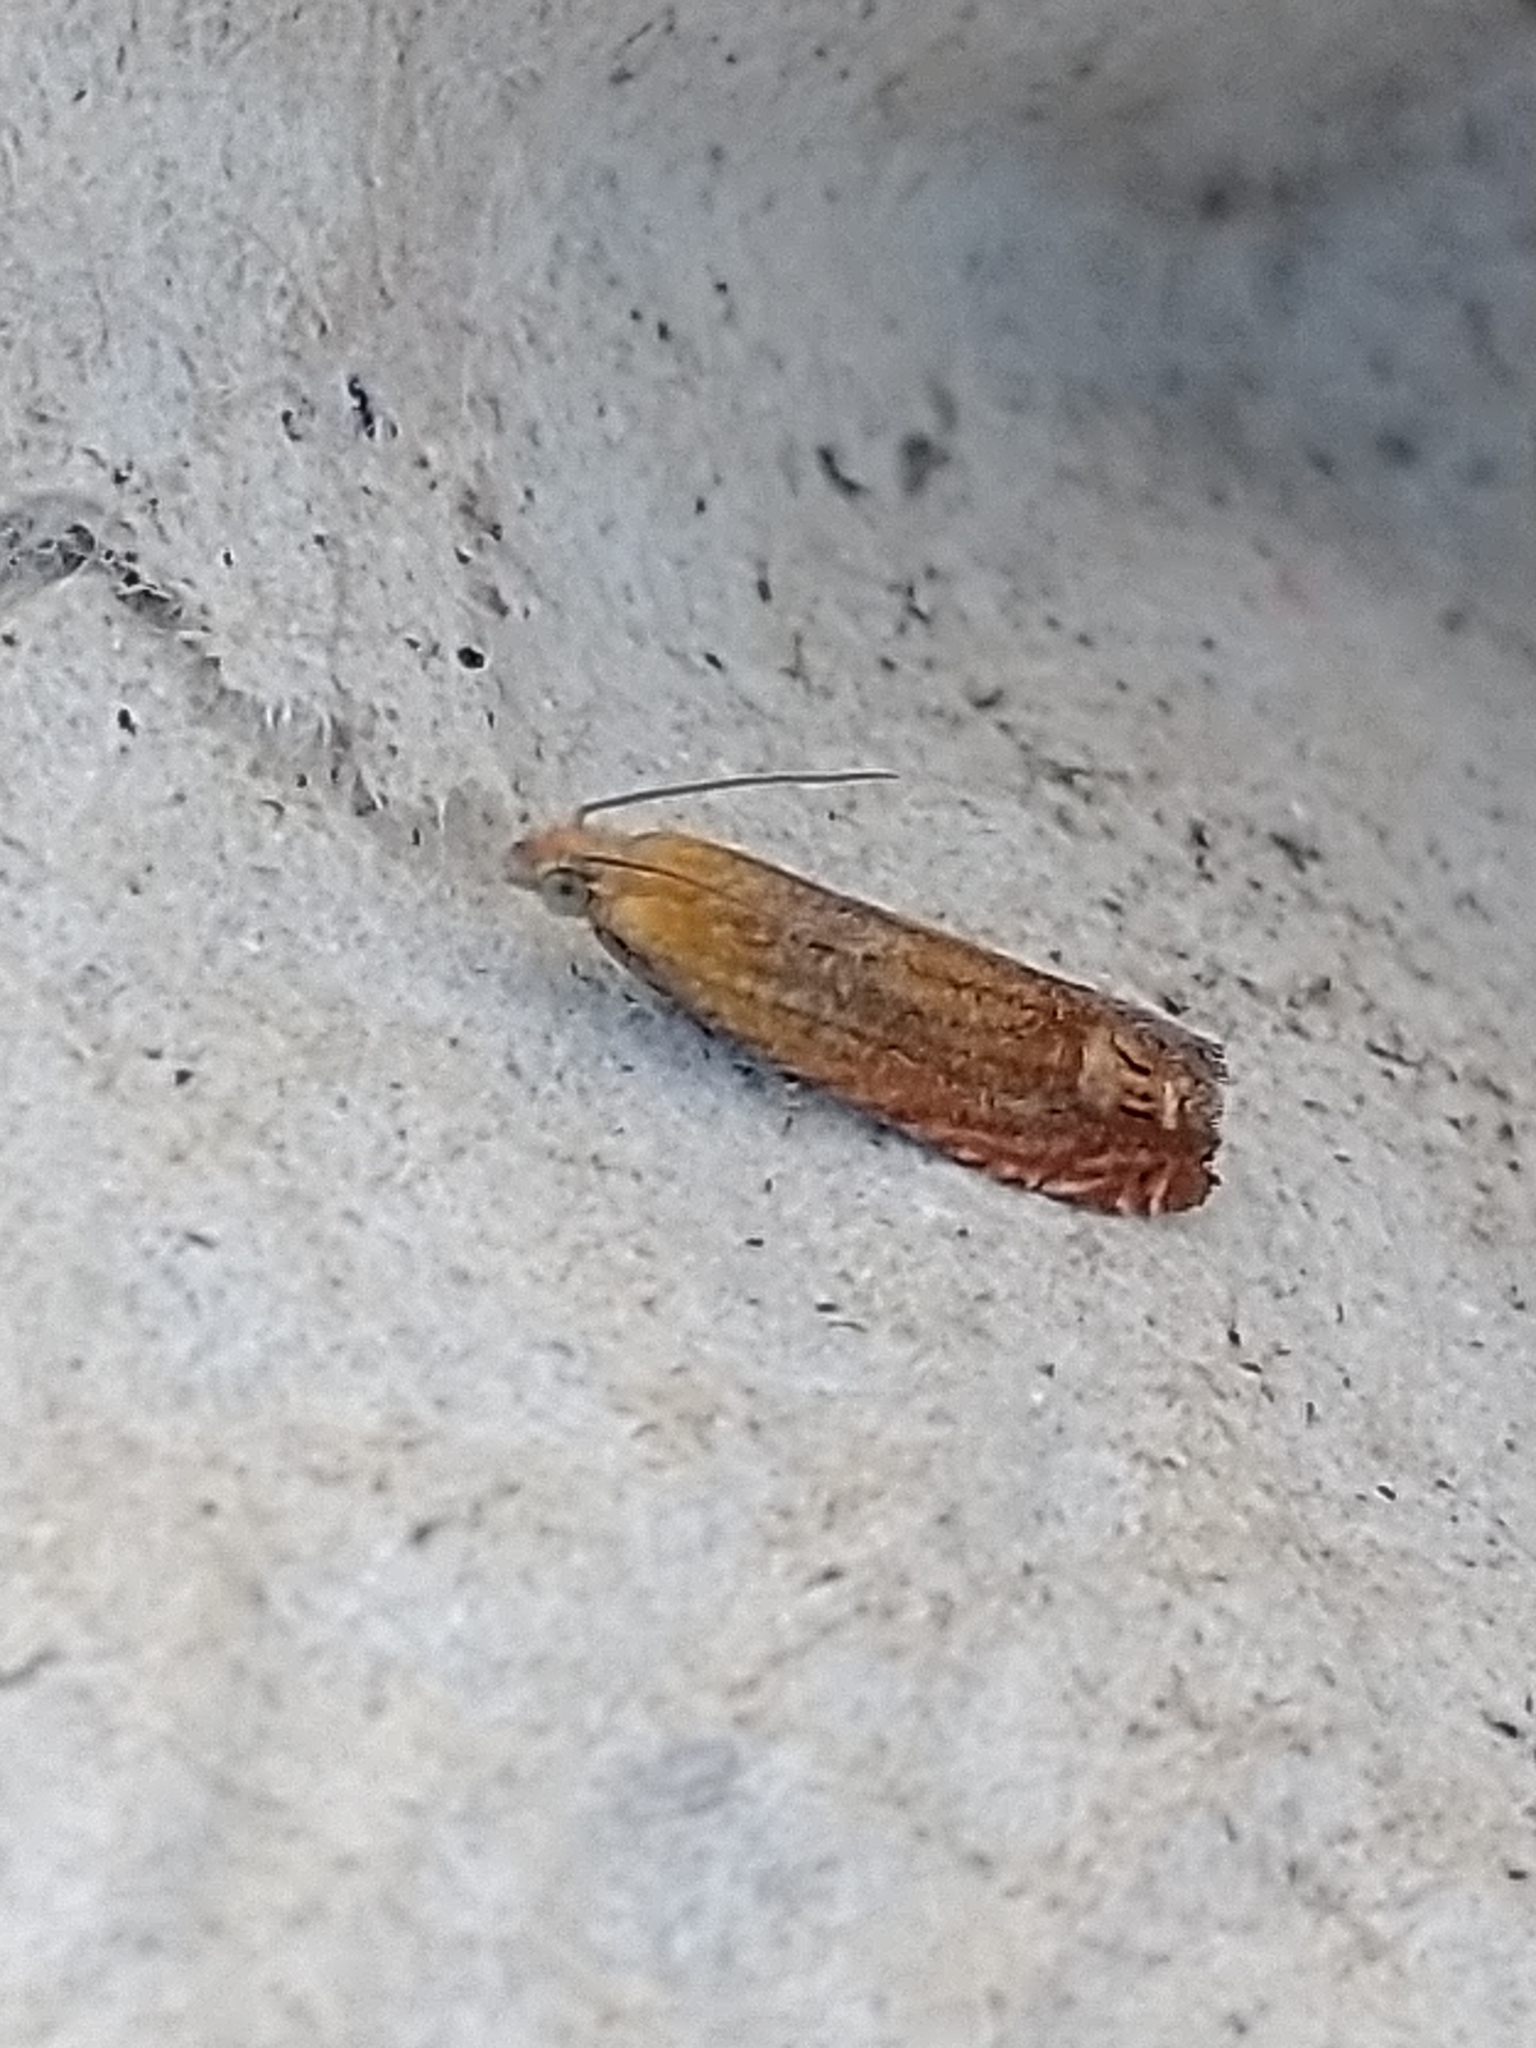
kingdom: Animalia
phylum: Arthropoda
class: Insecta
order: Lepidoptera
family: Tortricidae
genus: Lathronympha
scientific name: Lathronympha strigana
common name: Red piercer
